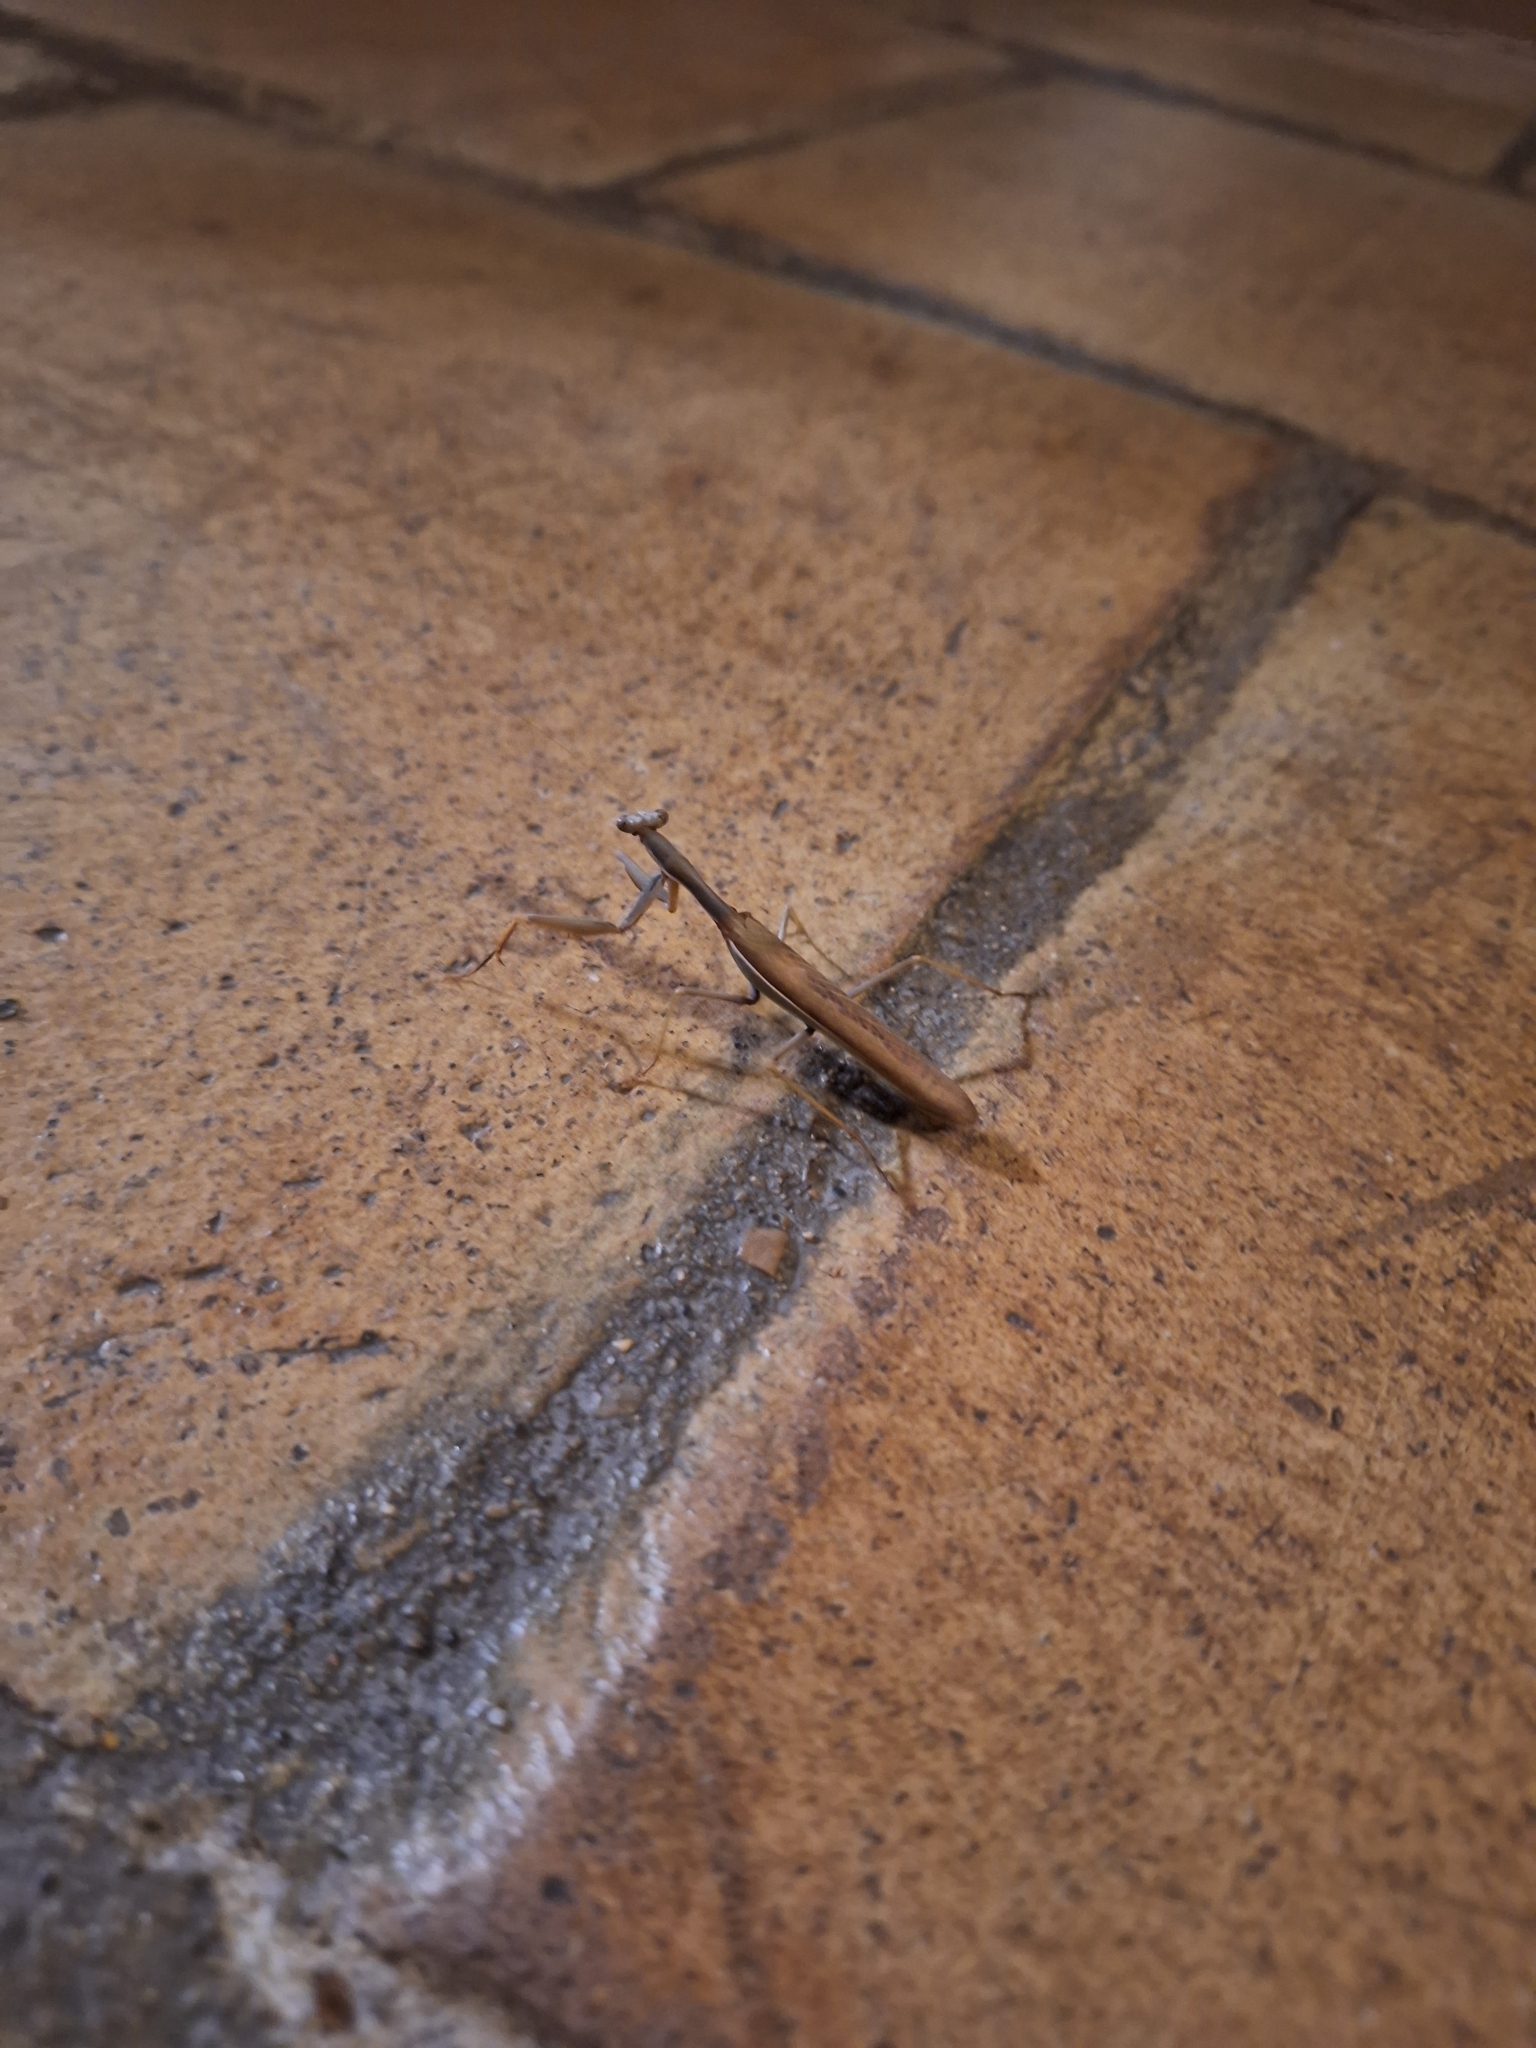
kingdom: Animalia
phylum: Arthropoda
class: Insecta
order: Mantodea
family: Eremiaphilidae
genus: Iris
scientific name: Iris oratoria
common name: Mediterranean mantis
